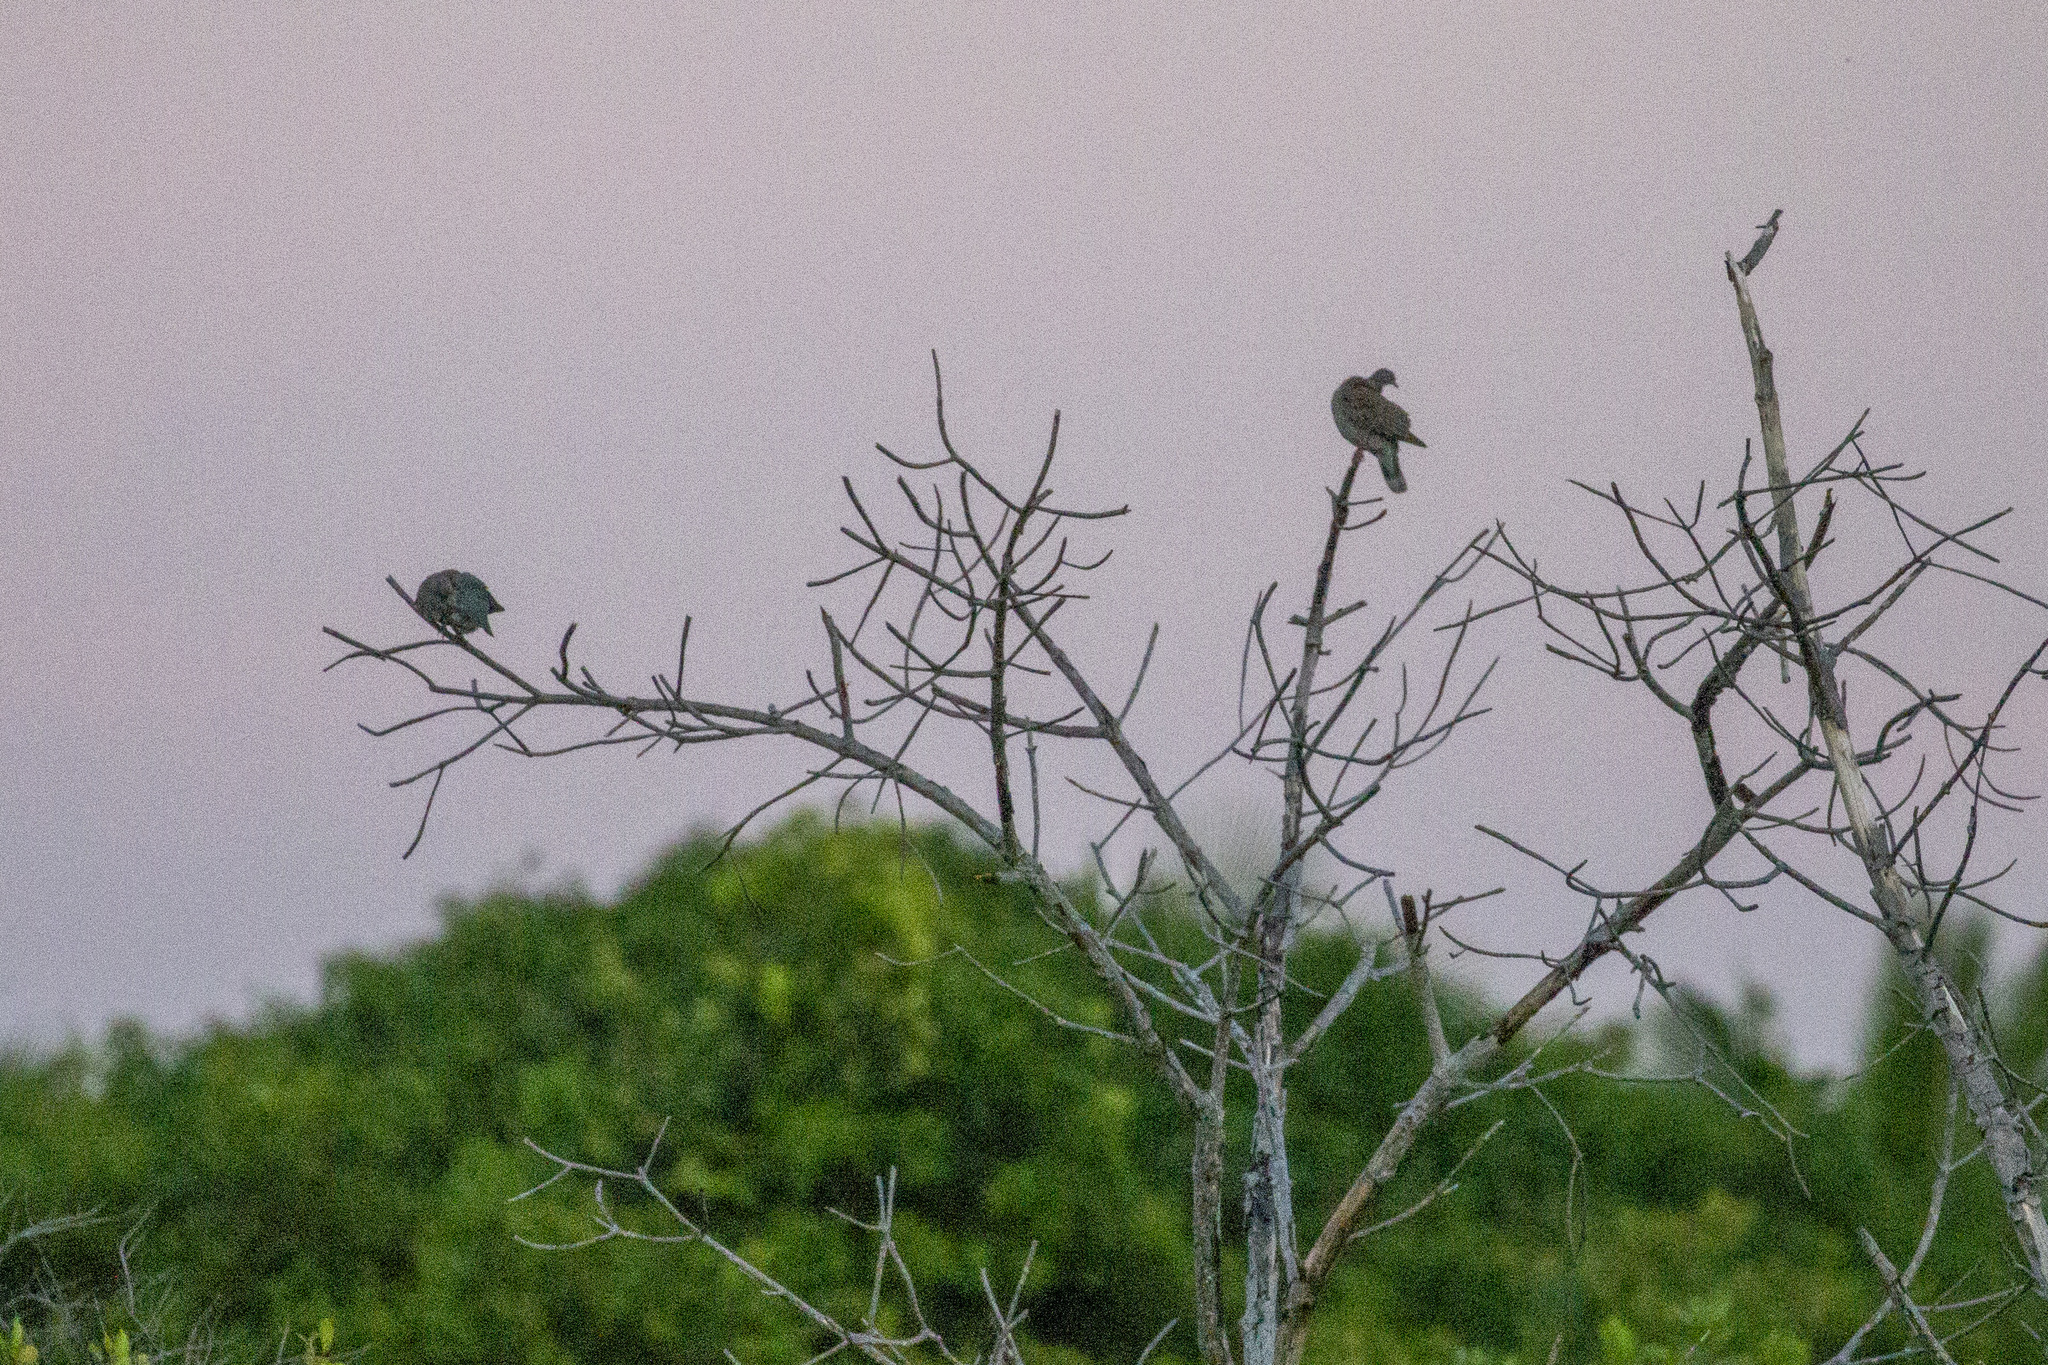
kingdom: Animalia
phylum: Chordata
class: Aves
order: Columbiformes
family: Columbidae
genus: Patagioenas
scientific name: Patagioenas cayennensis
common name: Pale-vented pigeon
